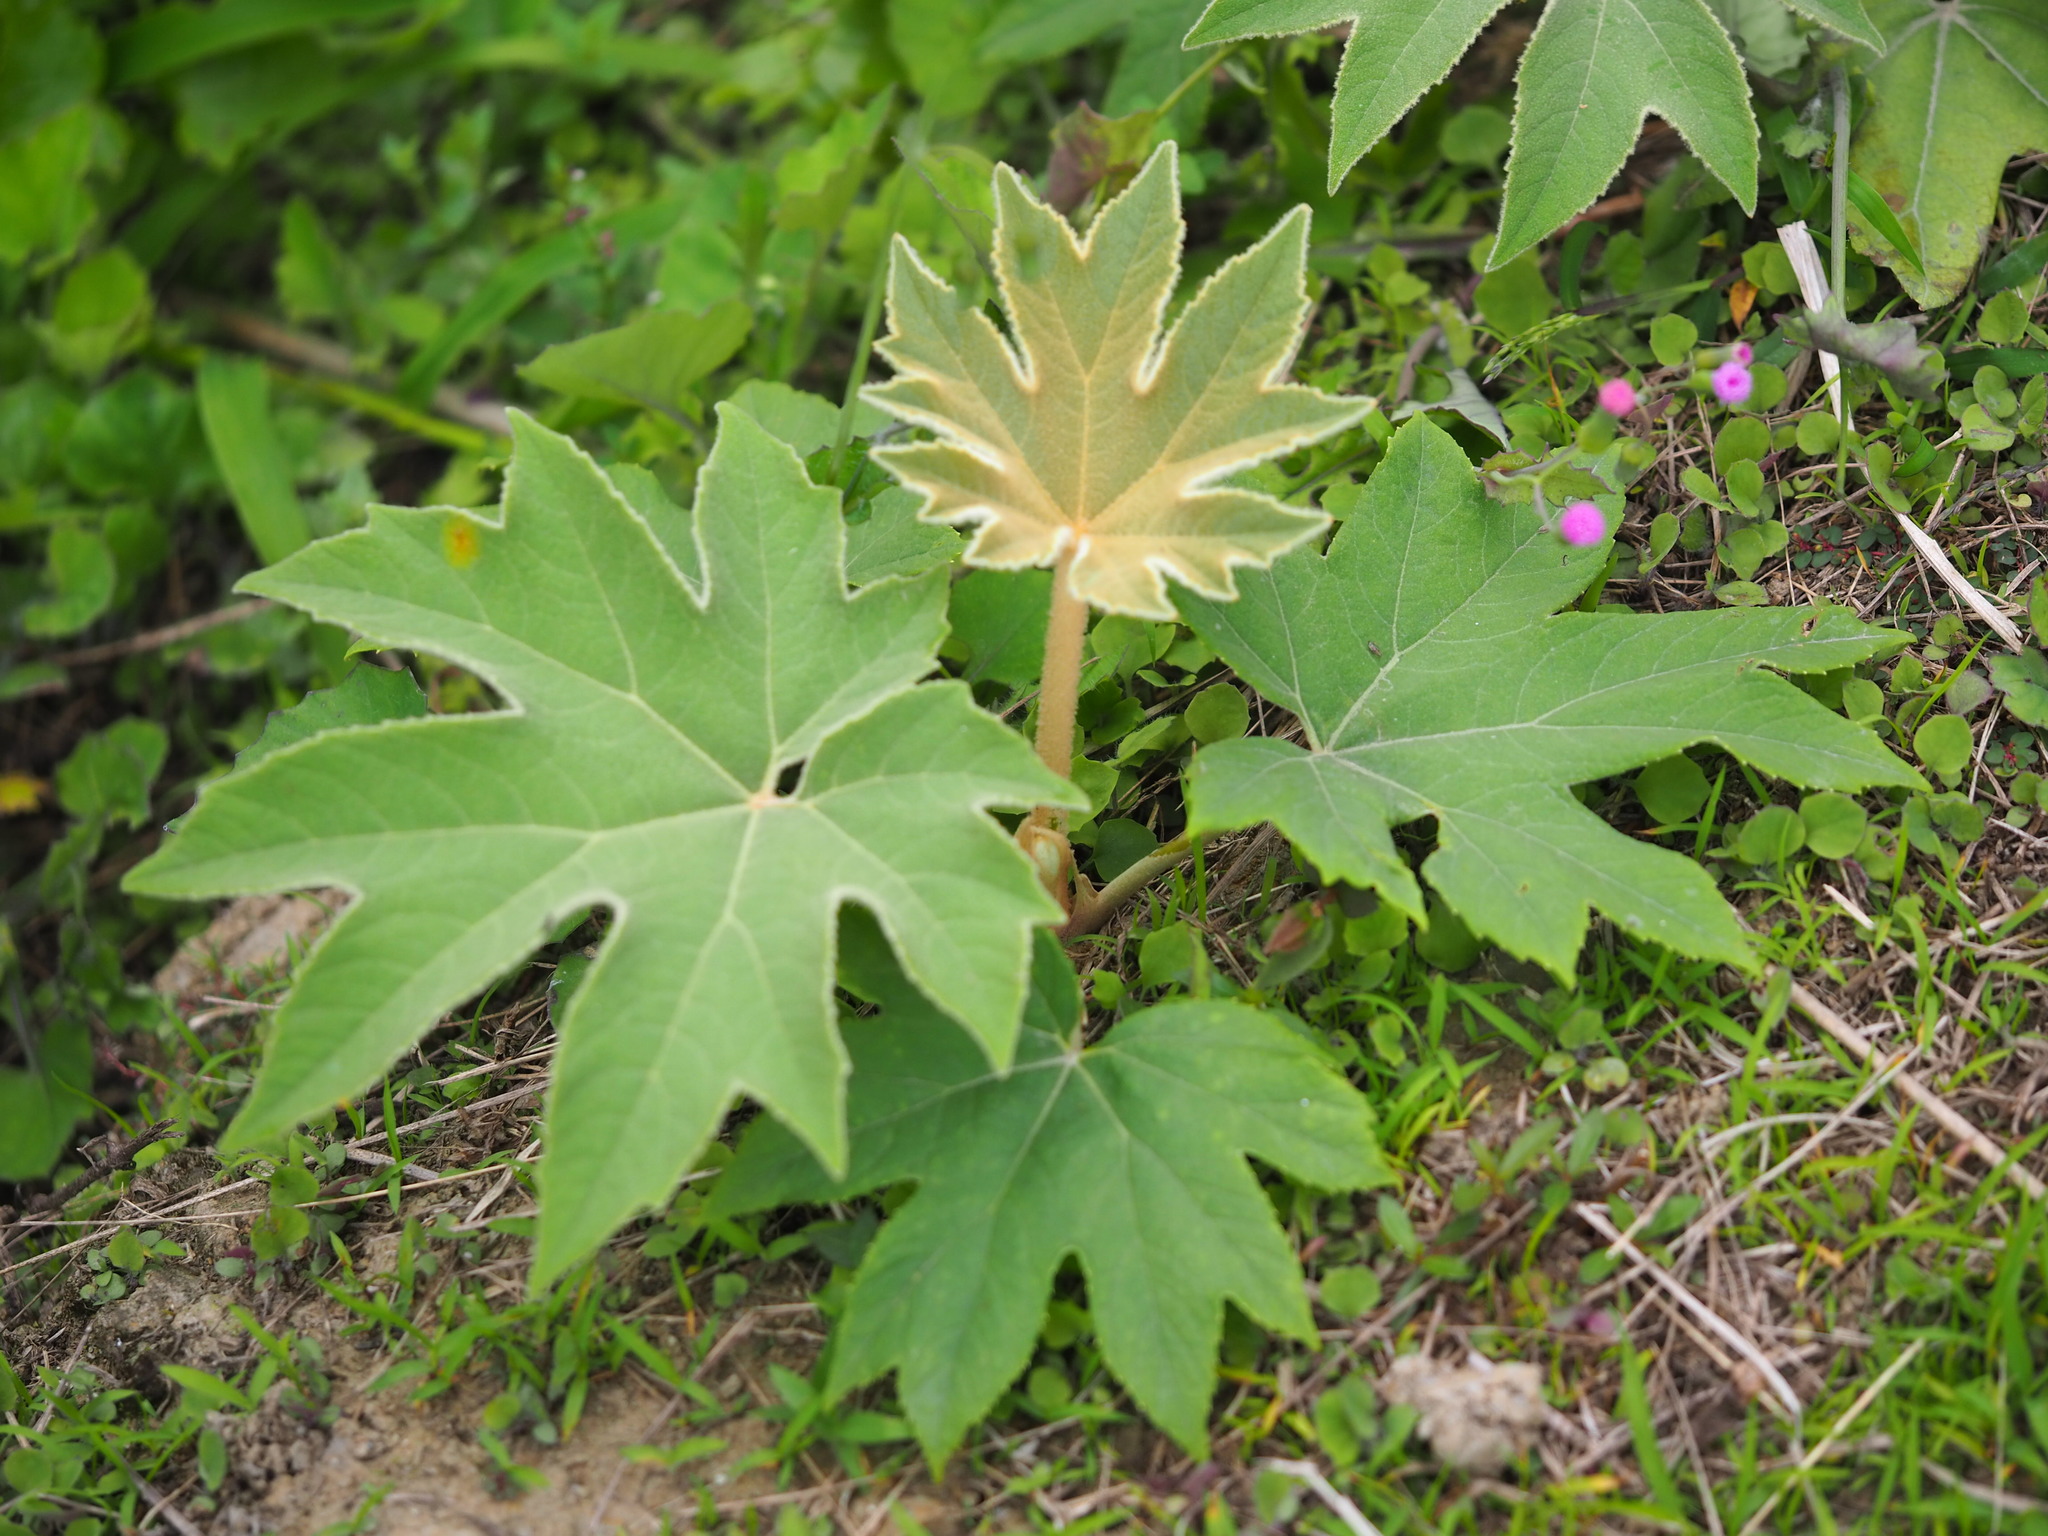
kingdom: Plantae
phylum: Tracheophyta
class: Magnoliopsida
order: Apiales
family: Araliaceae
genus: Tetrapanax
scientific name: Tetrapanax papyrifer
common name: Rice-paper plant
